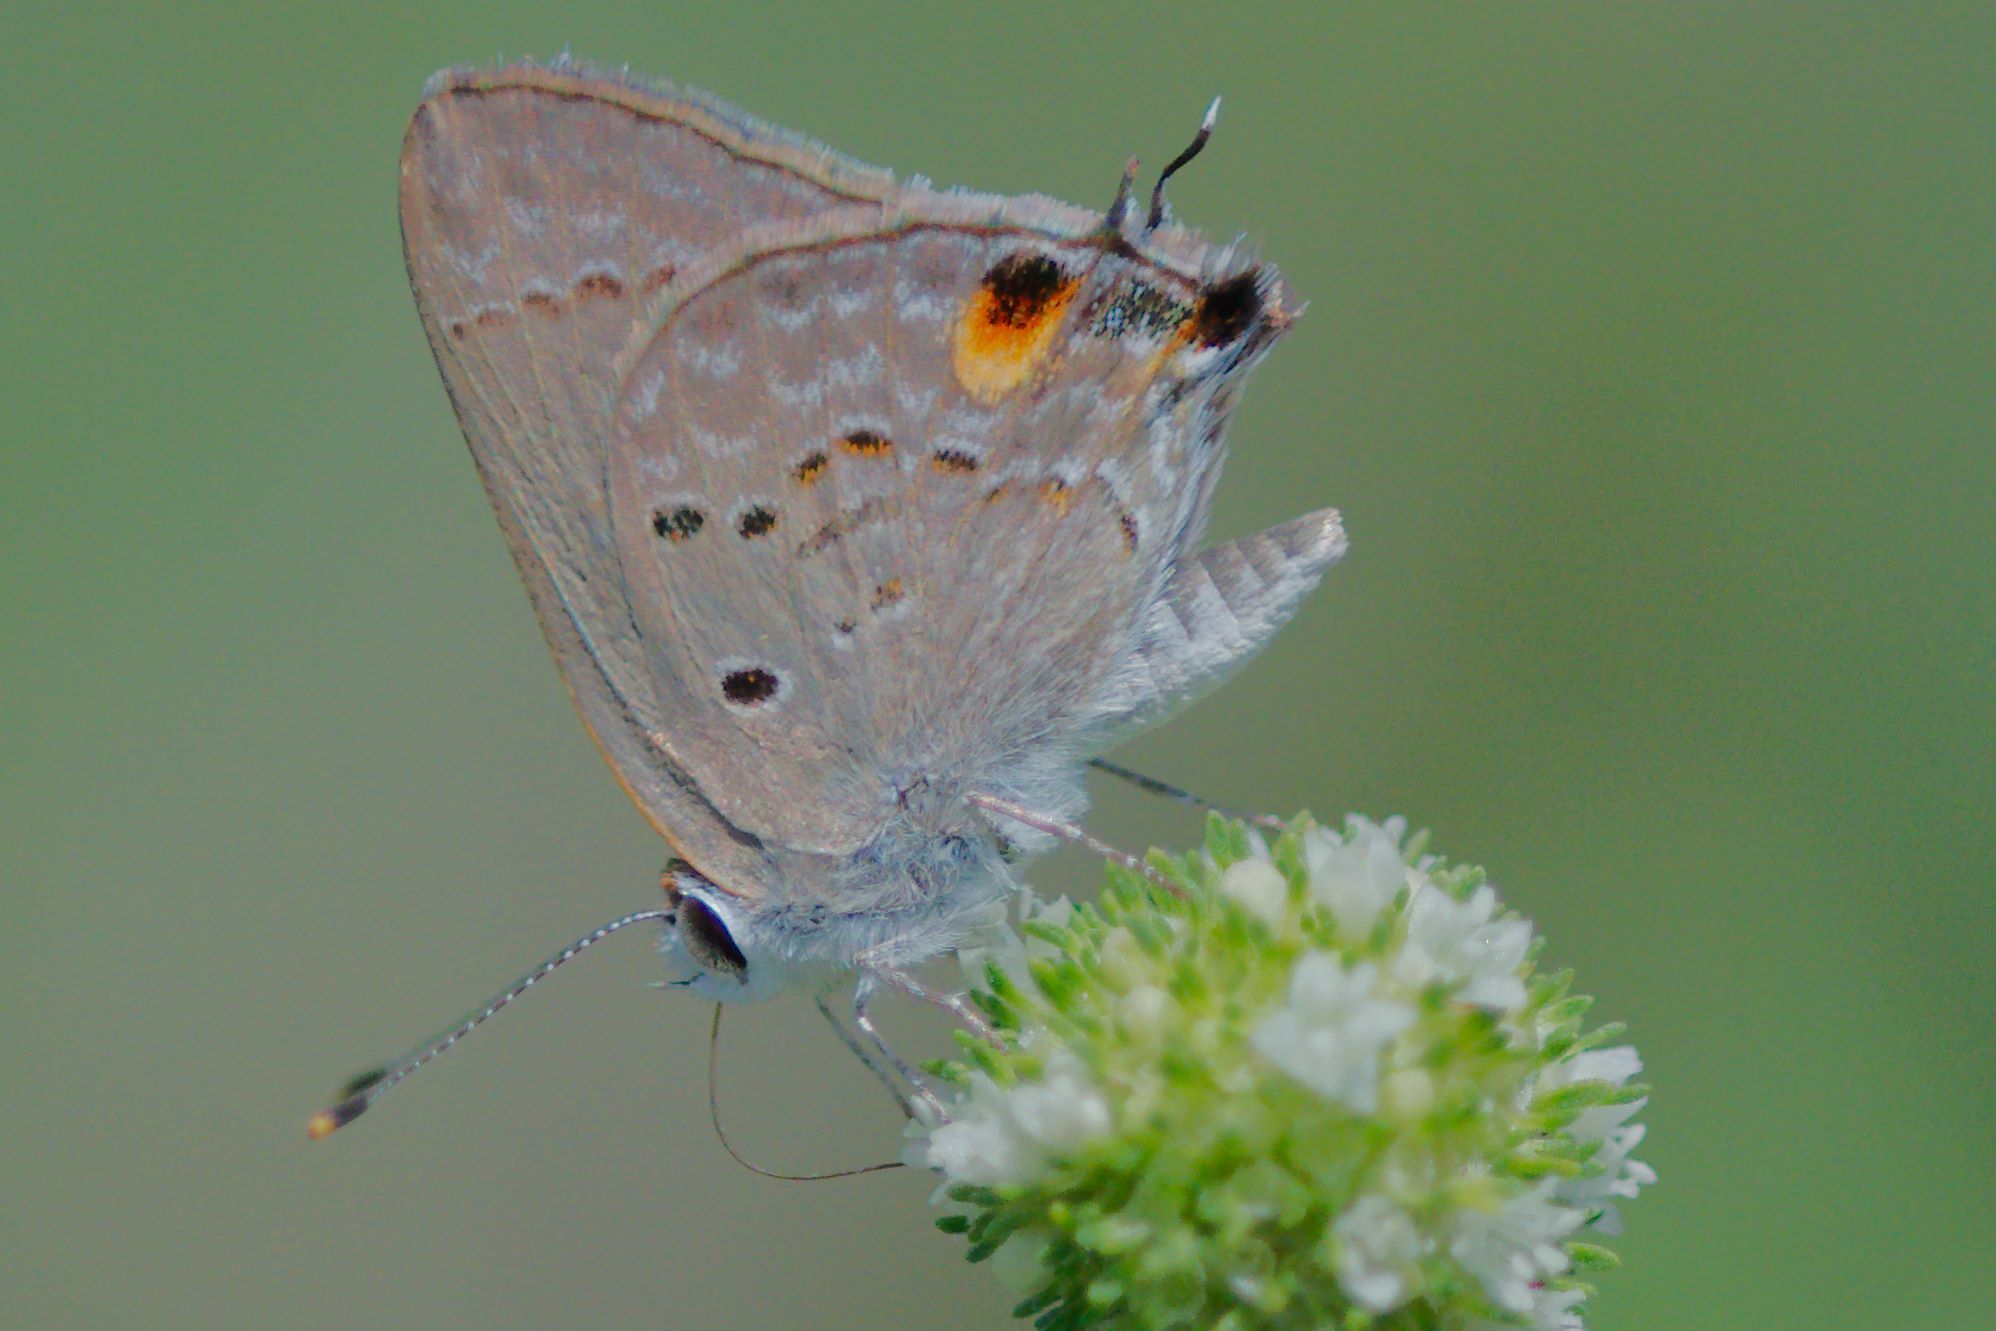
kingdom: Animalia
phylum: Arthropoda
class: Insecta
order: Lepidoptera
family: Lycaenidae
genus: Callicista
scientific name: Callicista columella
